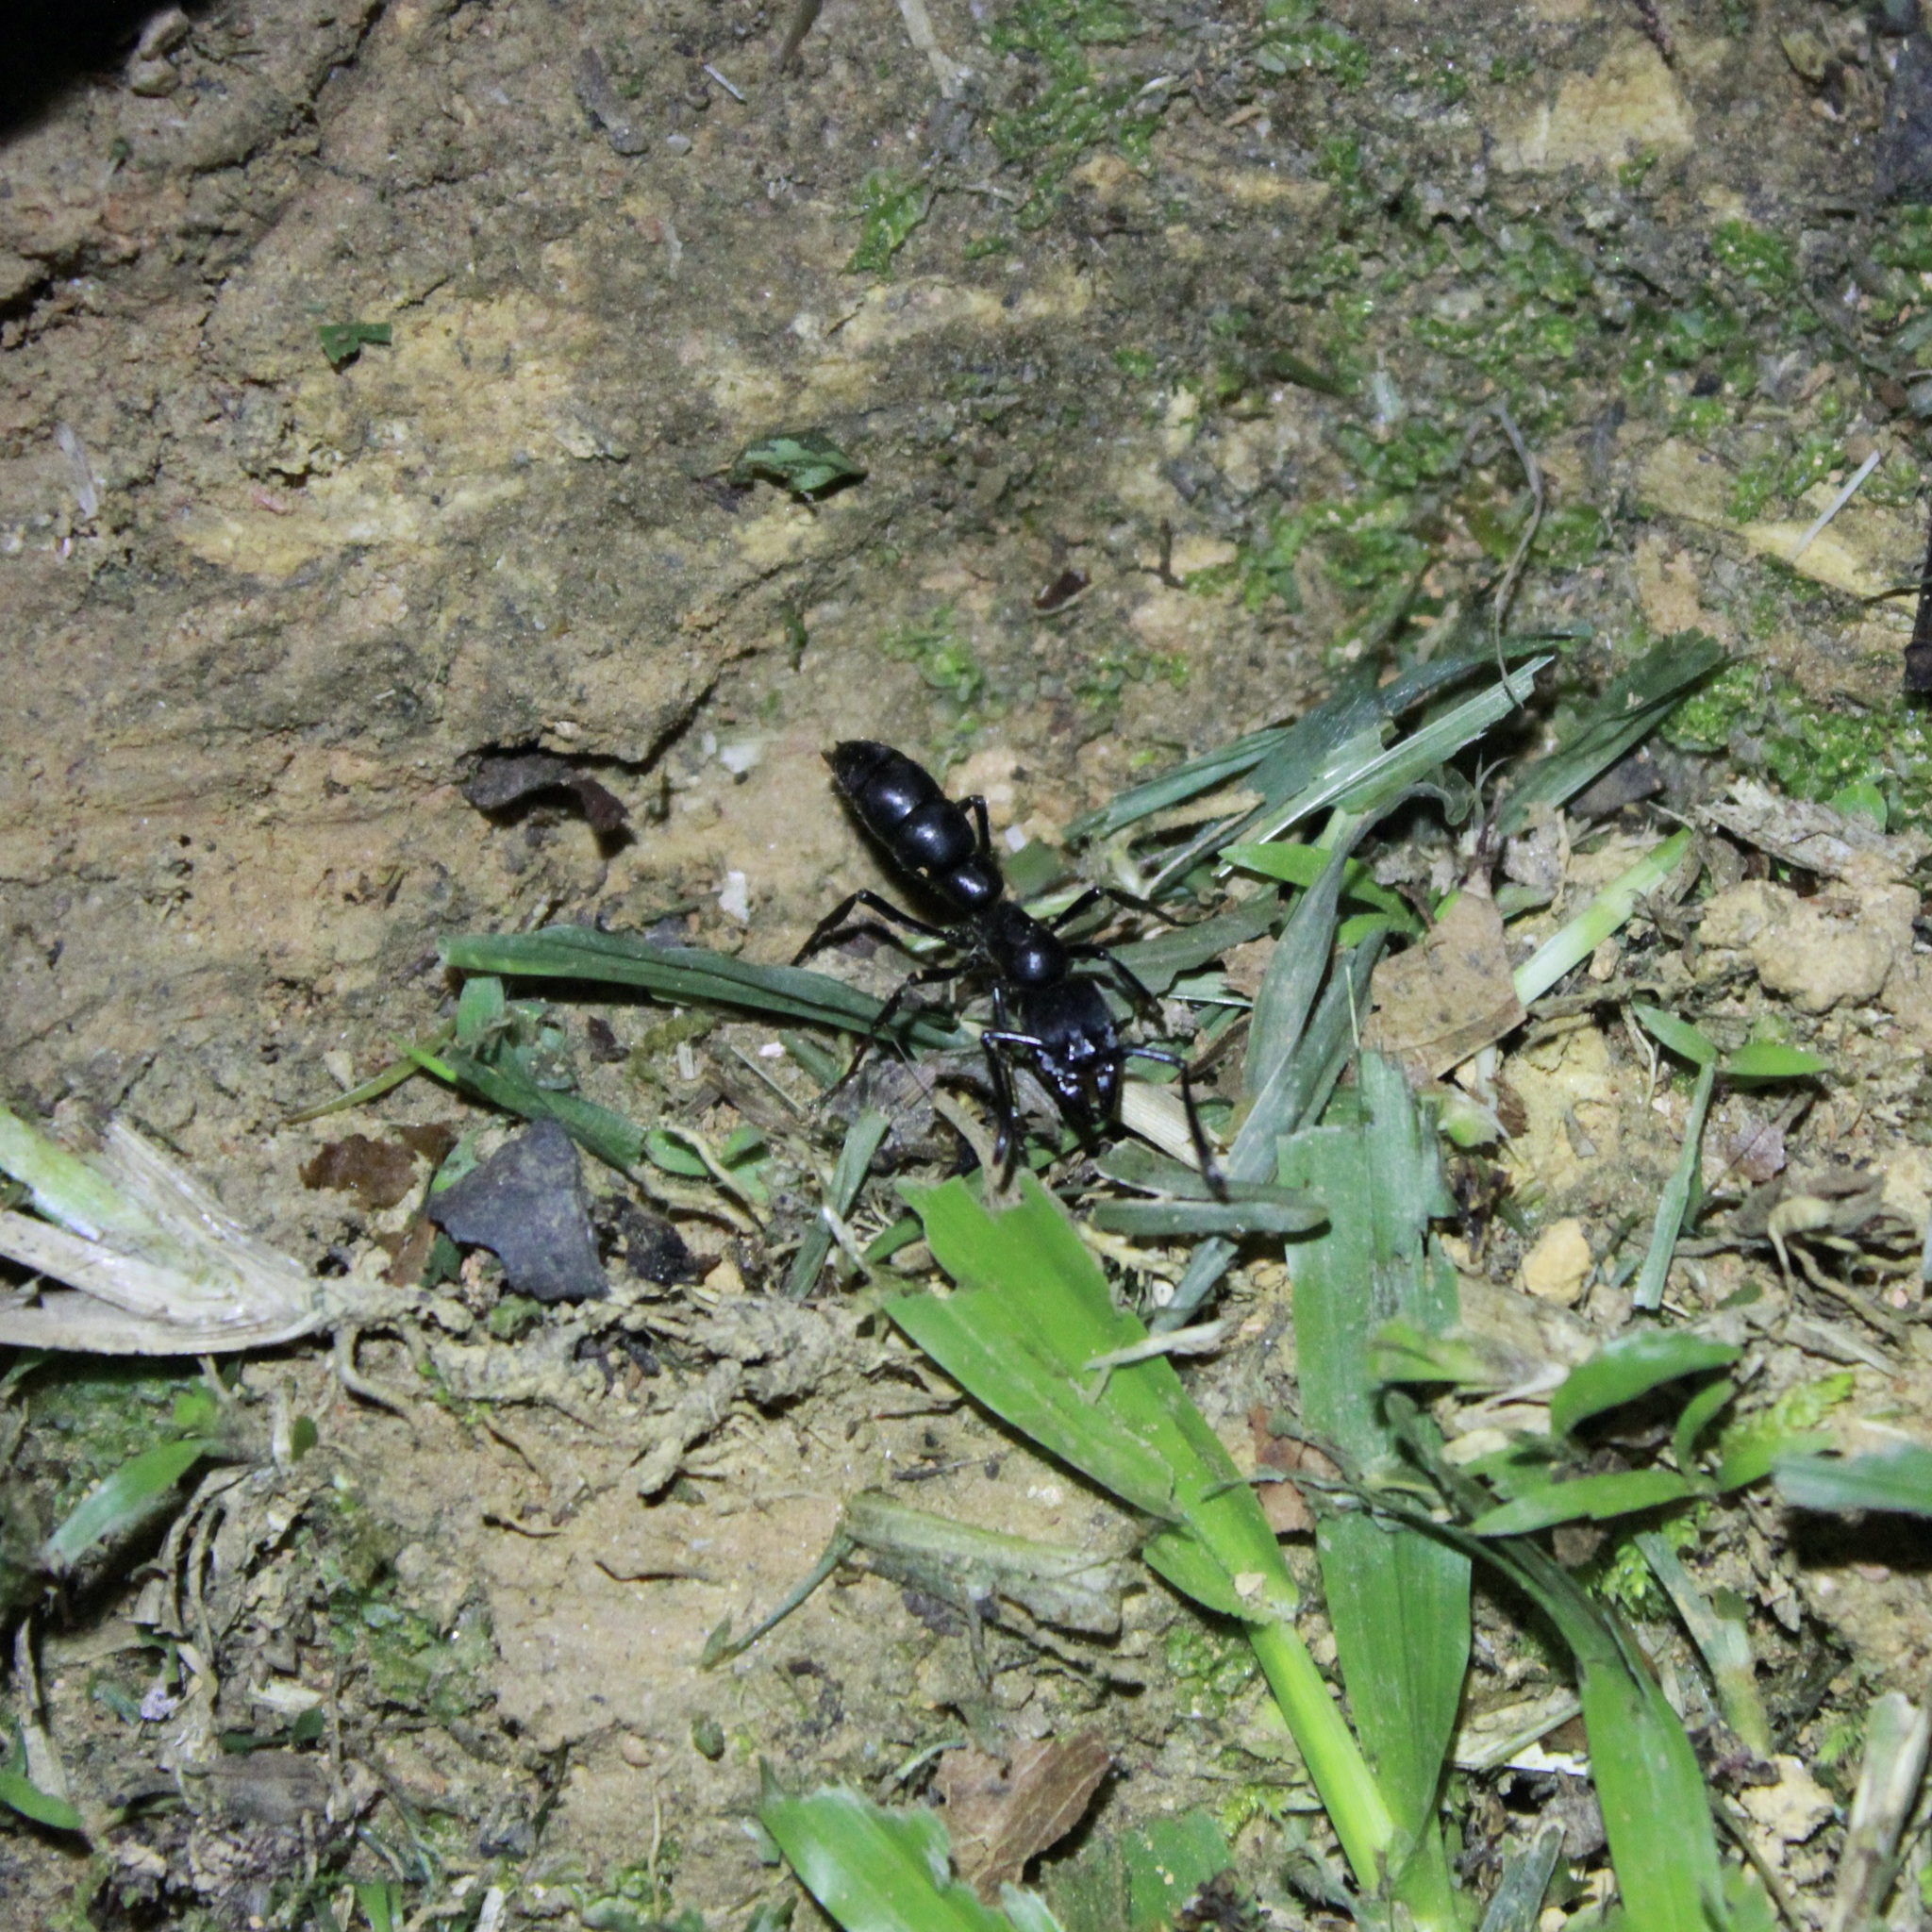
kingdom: Animalia
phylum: Arthropoda
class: Insecta
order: Hymenoptera
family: Formicidae
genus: Pachycondyla
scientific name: Pachycondyla crassinoda
